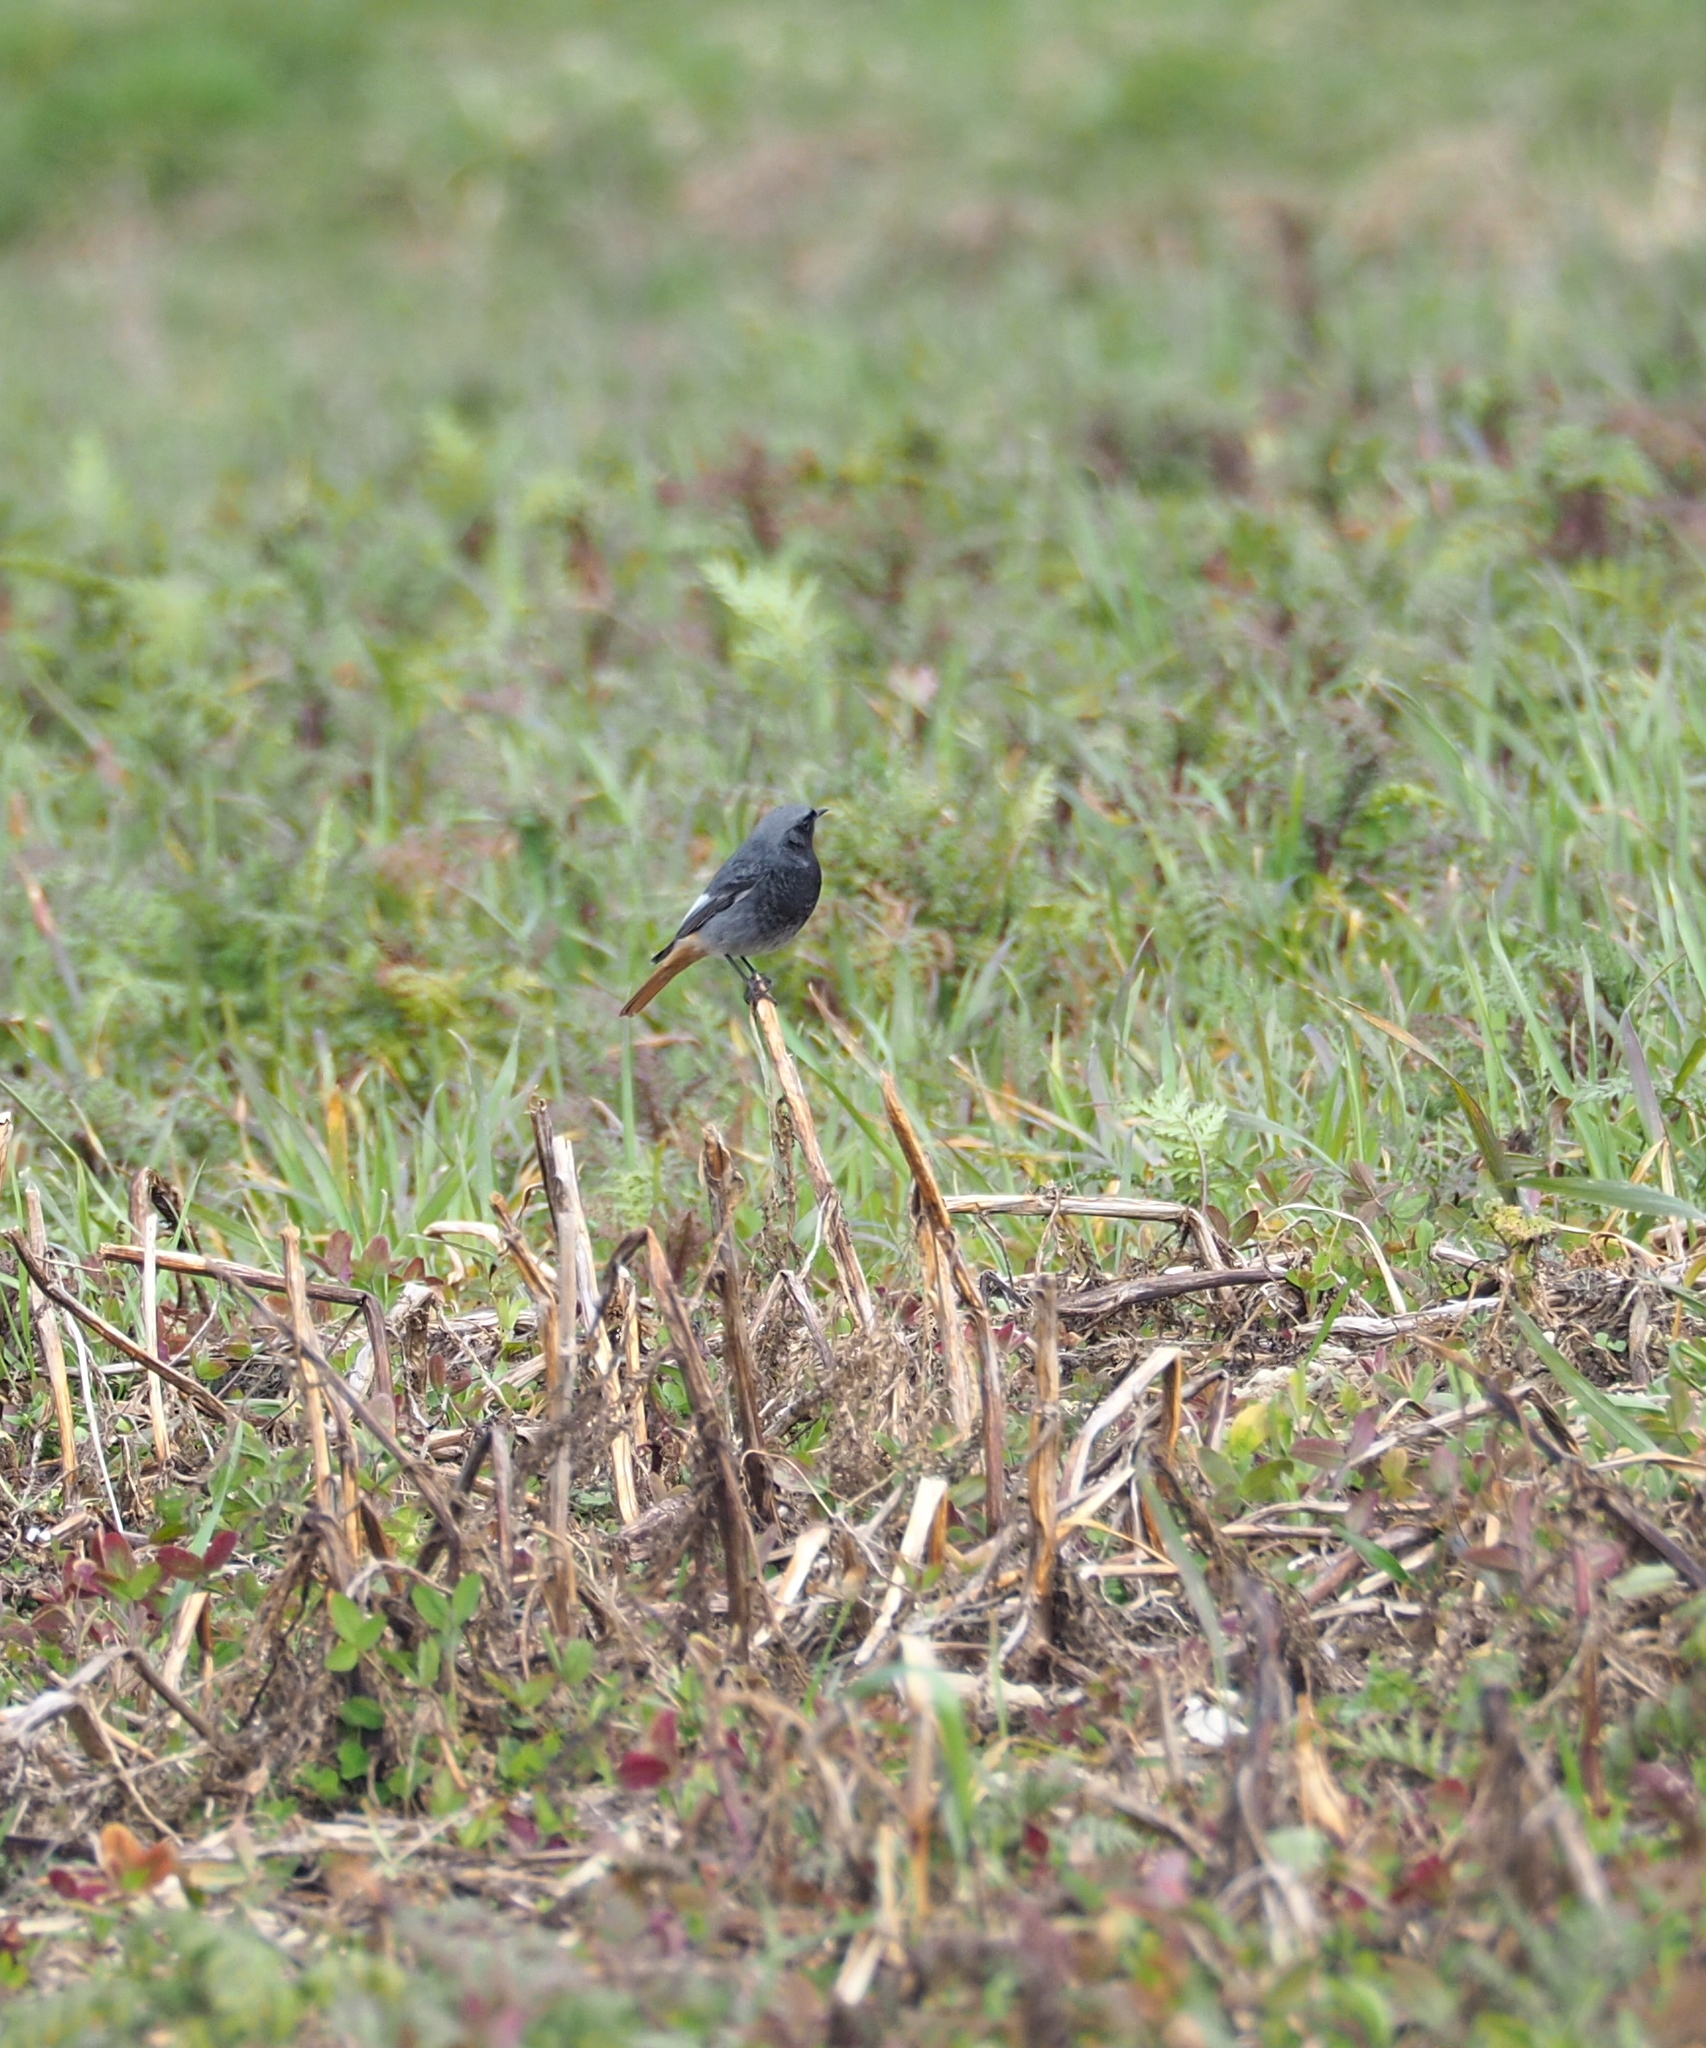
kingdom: Animalia
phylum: Chordata
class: Aves
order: Passeriformes
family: Muscicapidae
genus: Phoenicurus
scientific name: Phoenicurus ochruros
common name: Black redstart
